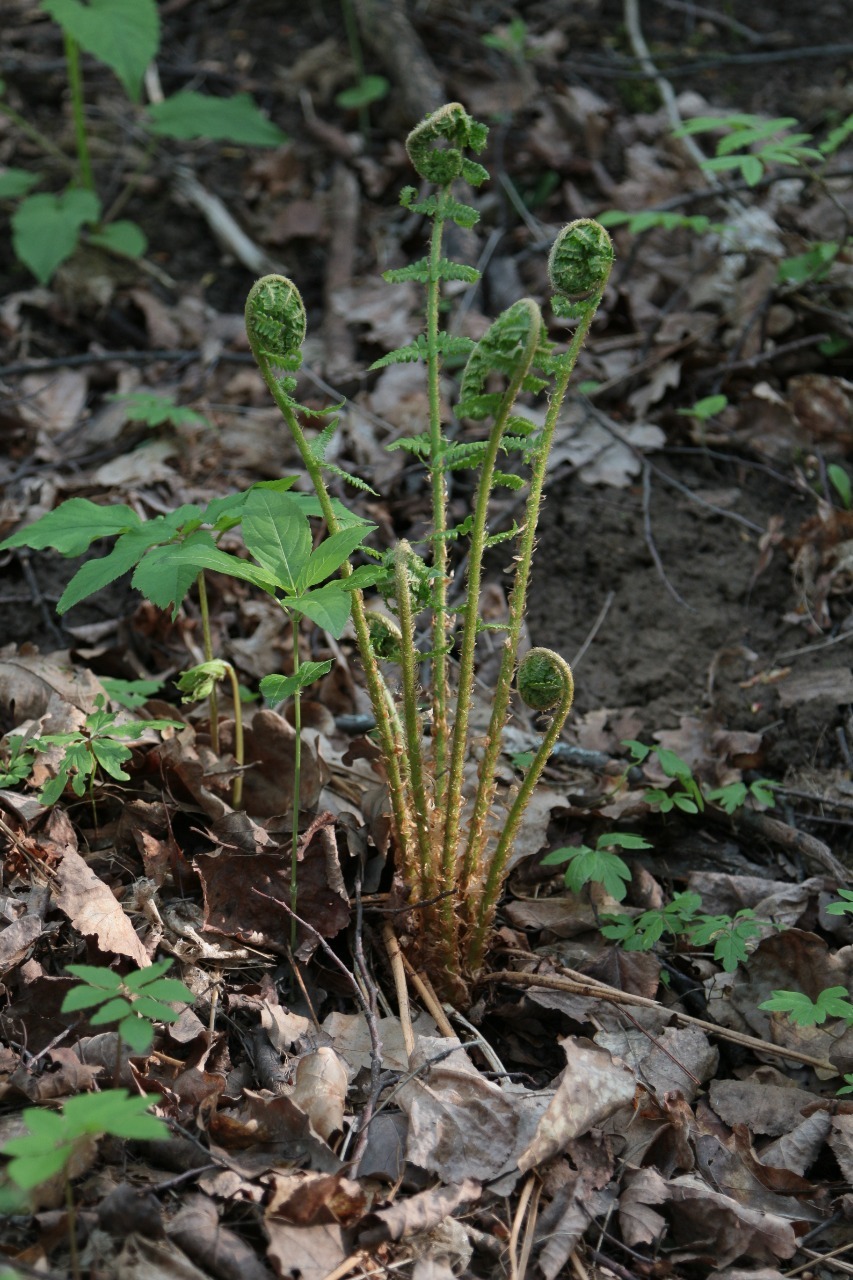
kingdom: Plantae
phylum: Tracheophyta
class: Polypodiopsida
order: Polypodiales
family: Dryopteridaceae
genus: Dryopteris
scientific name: Dryopteris filix-mas
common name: Male fern
